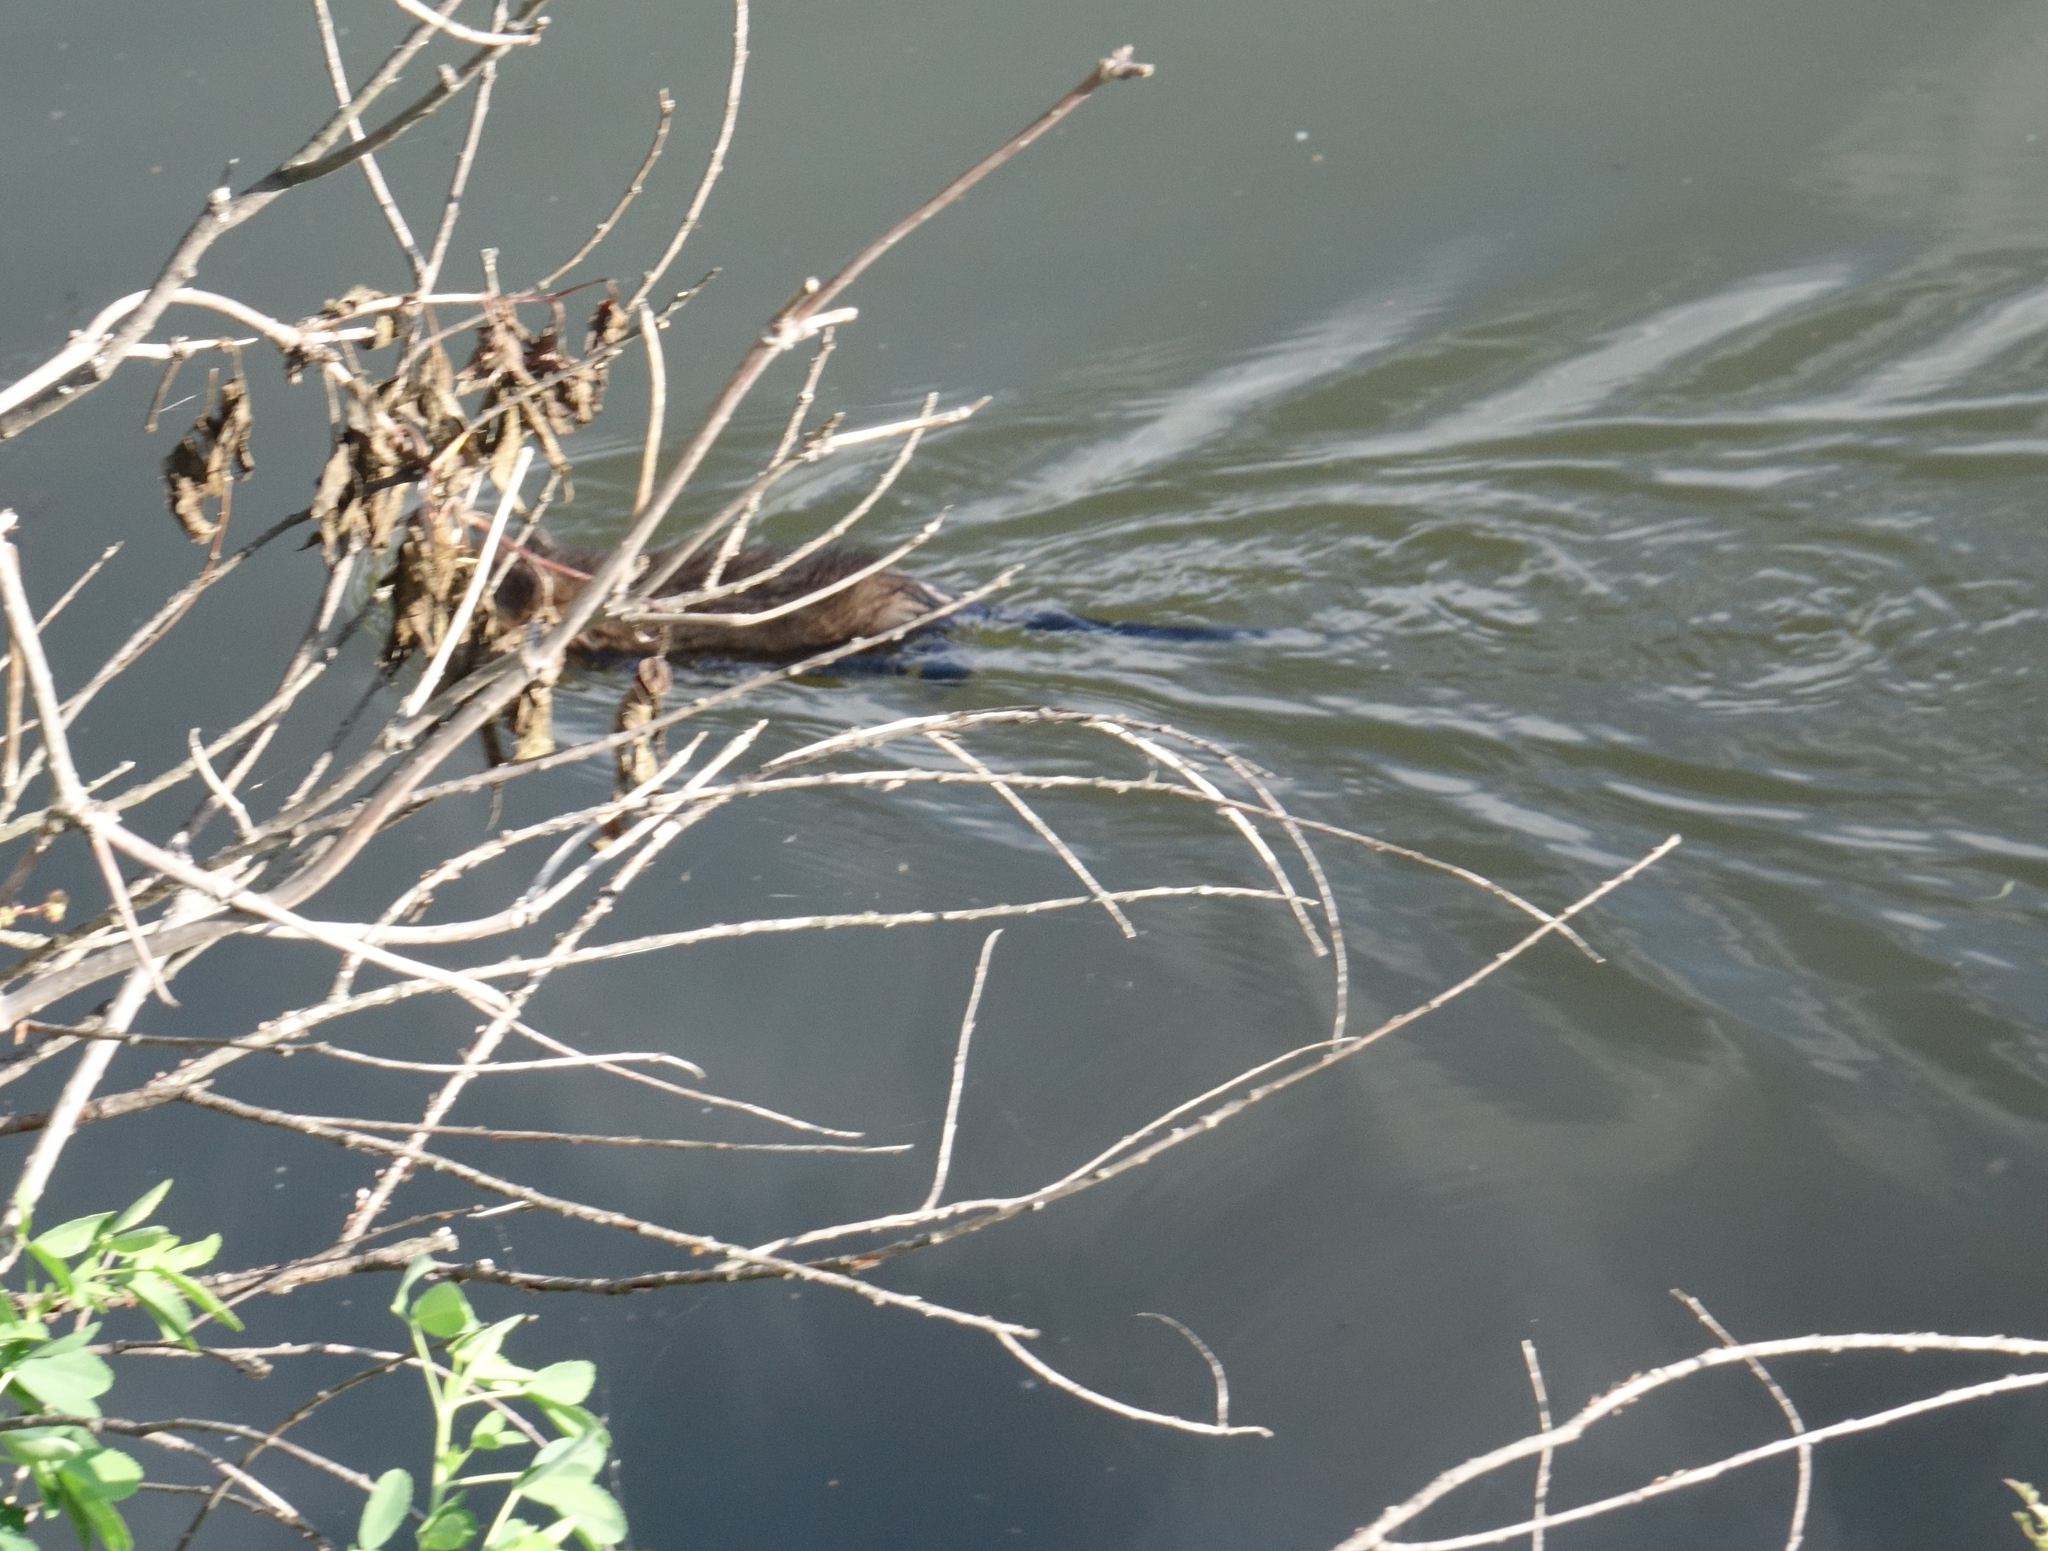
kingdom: Animalia
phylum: Chordata
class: Mammalia
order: Rodentia
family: Cricetidae
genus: Ondatra
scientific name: Ondatra zibethicus
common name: Muskrat
